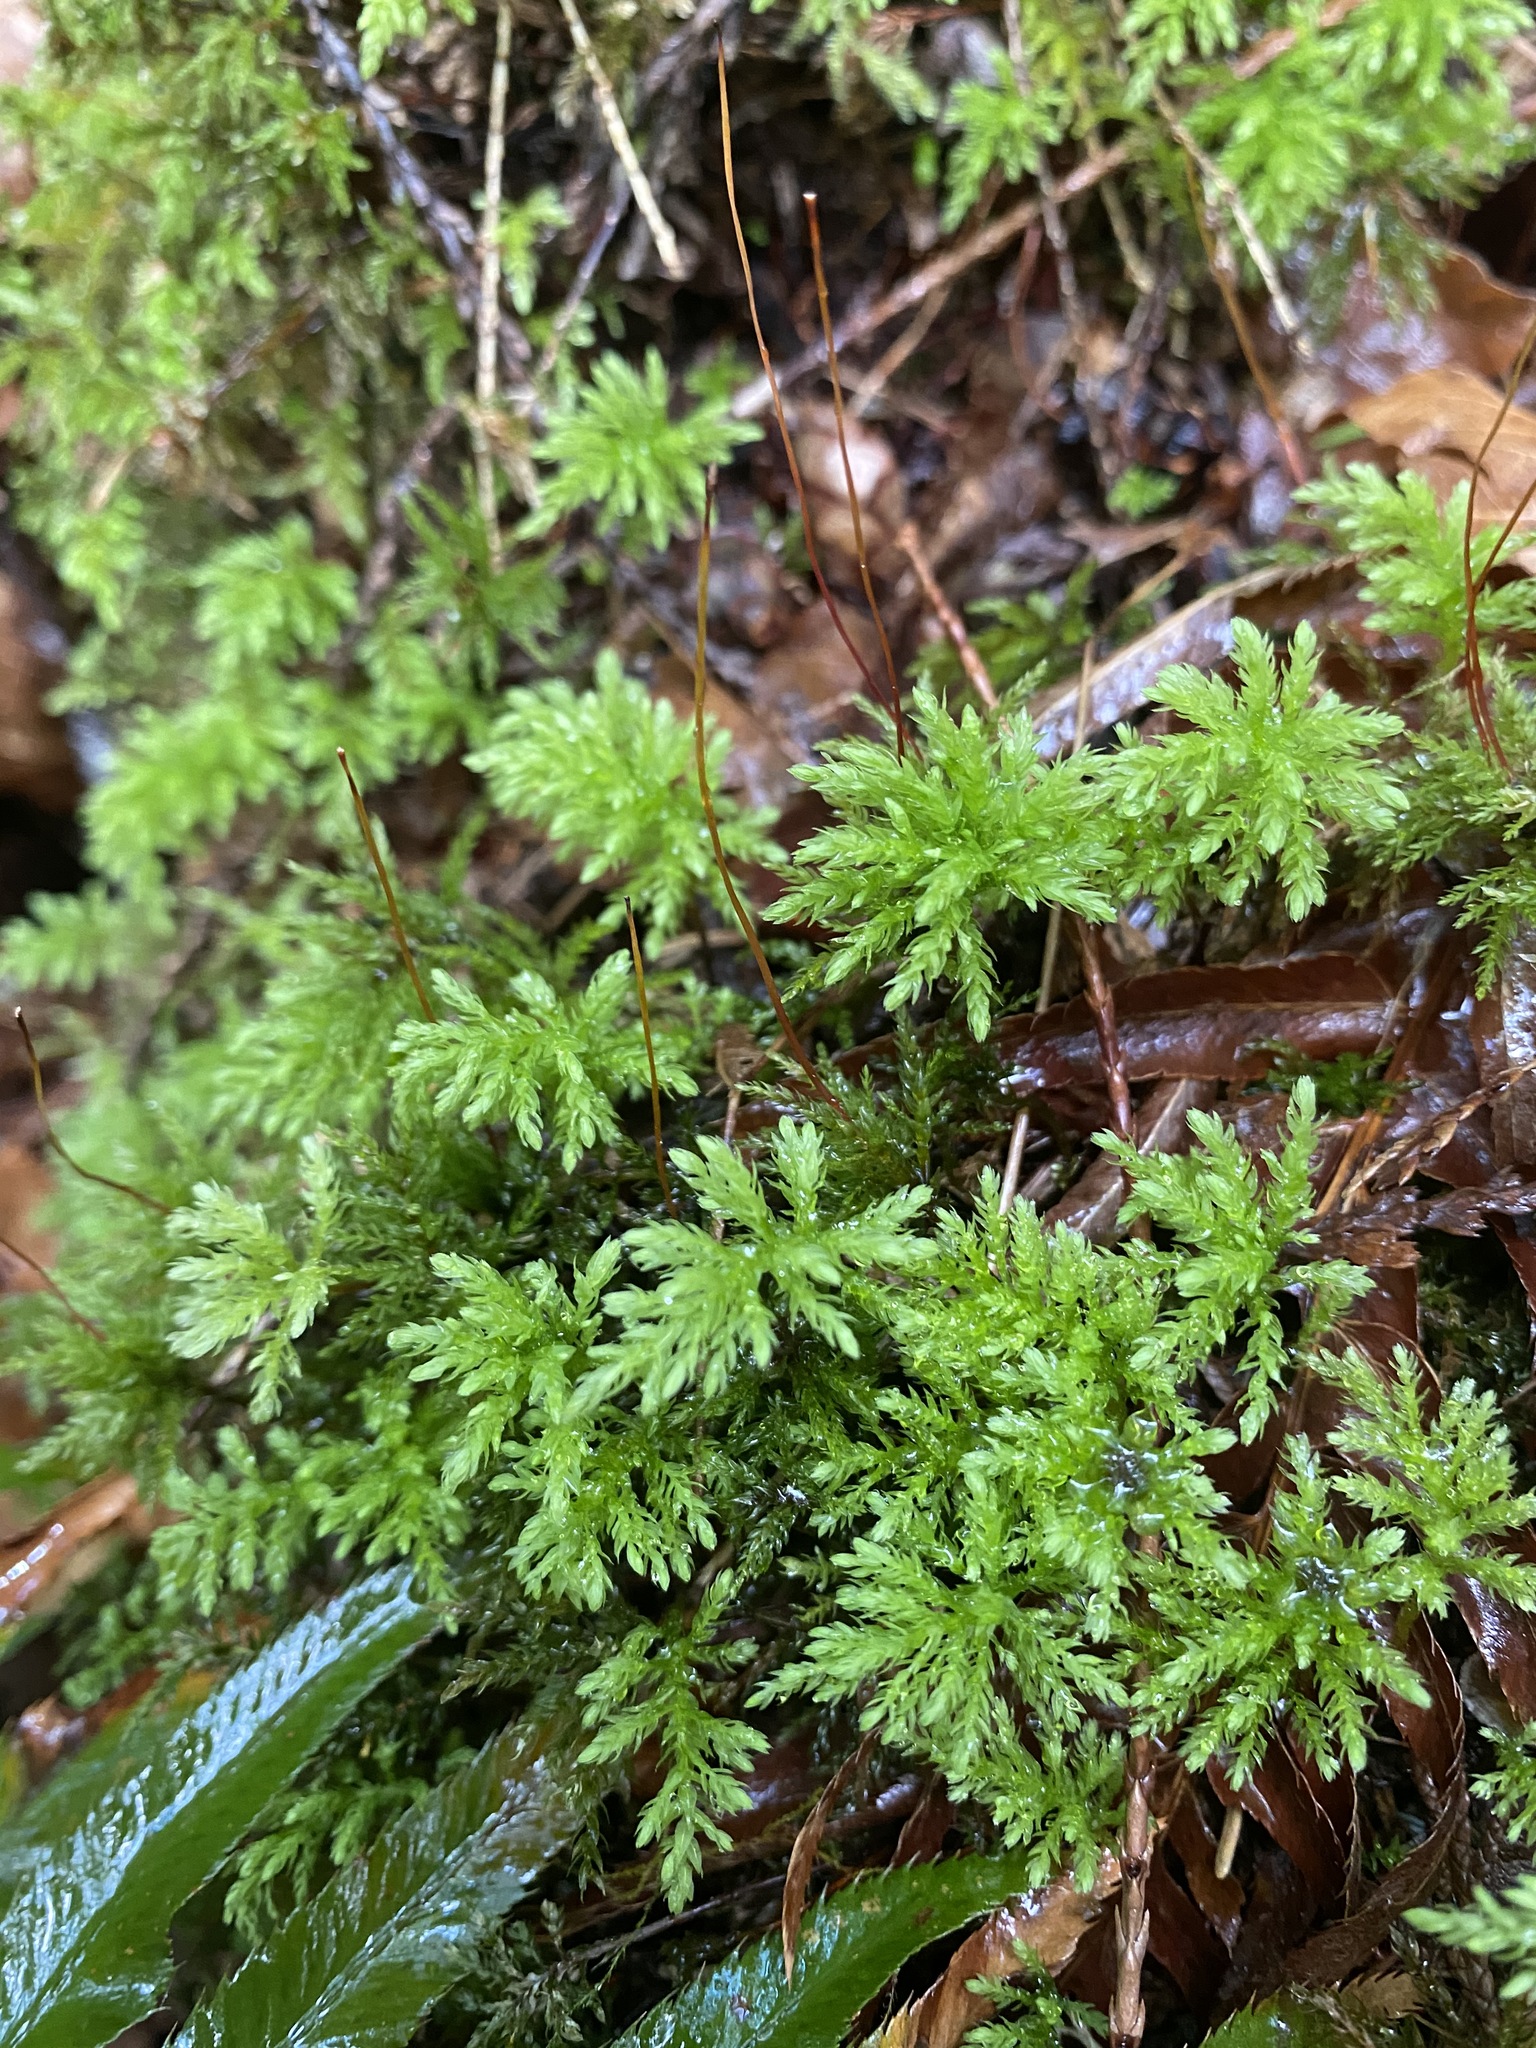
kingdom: Plantae
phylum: Bryophyta
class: Bryopsida
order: Bryales
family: Mniaceae
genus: Leucolepis
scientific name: Leucolepis acanthoneura
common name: Leucolepis umbrella moss
